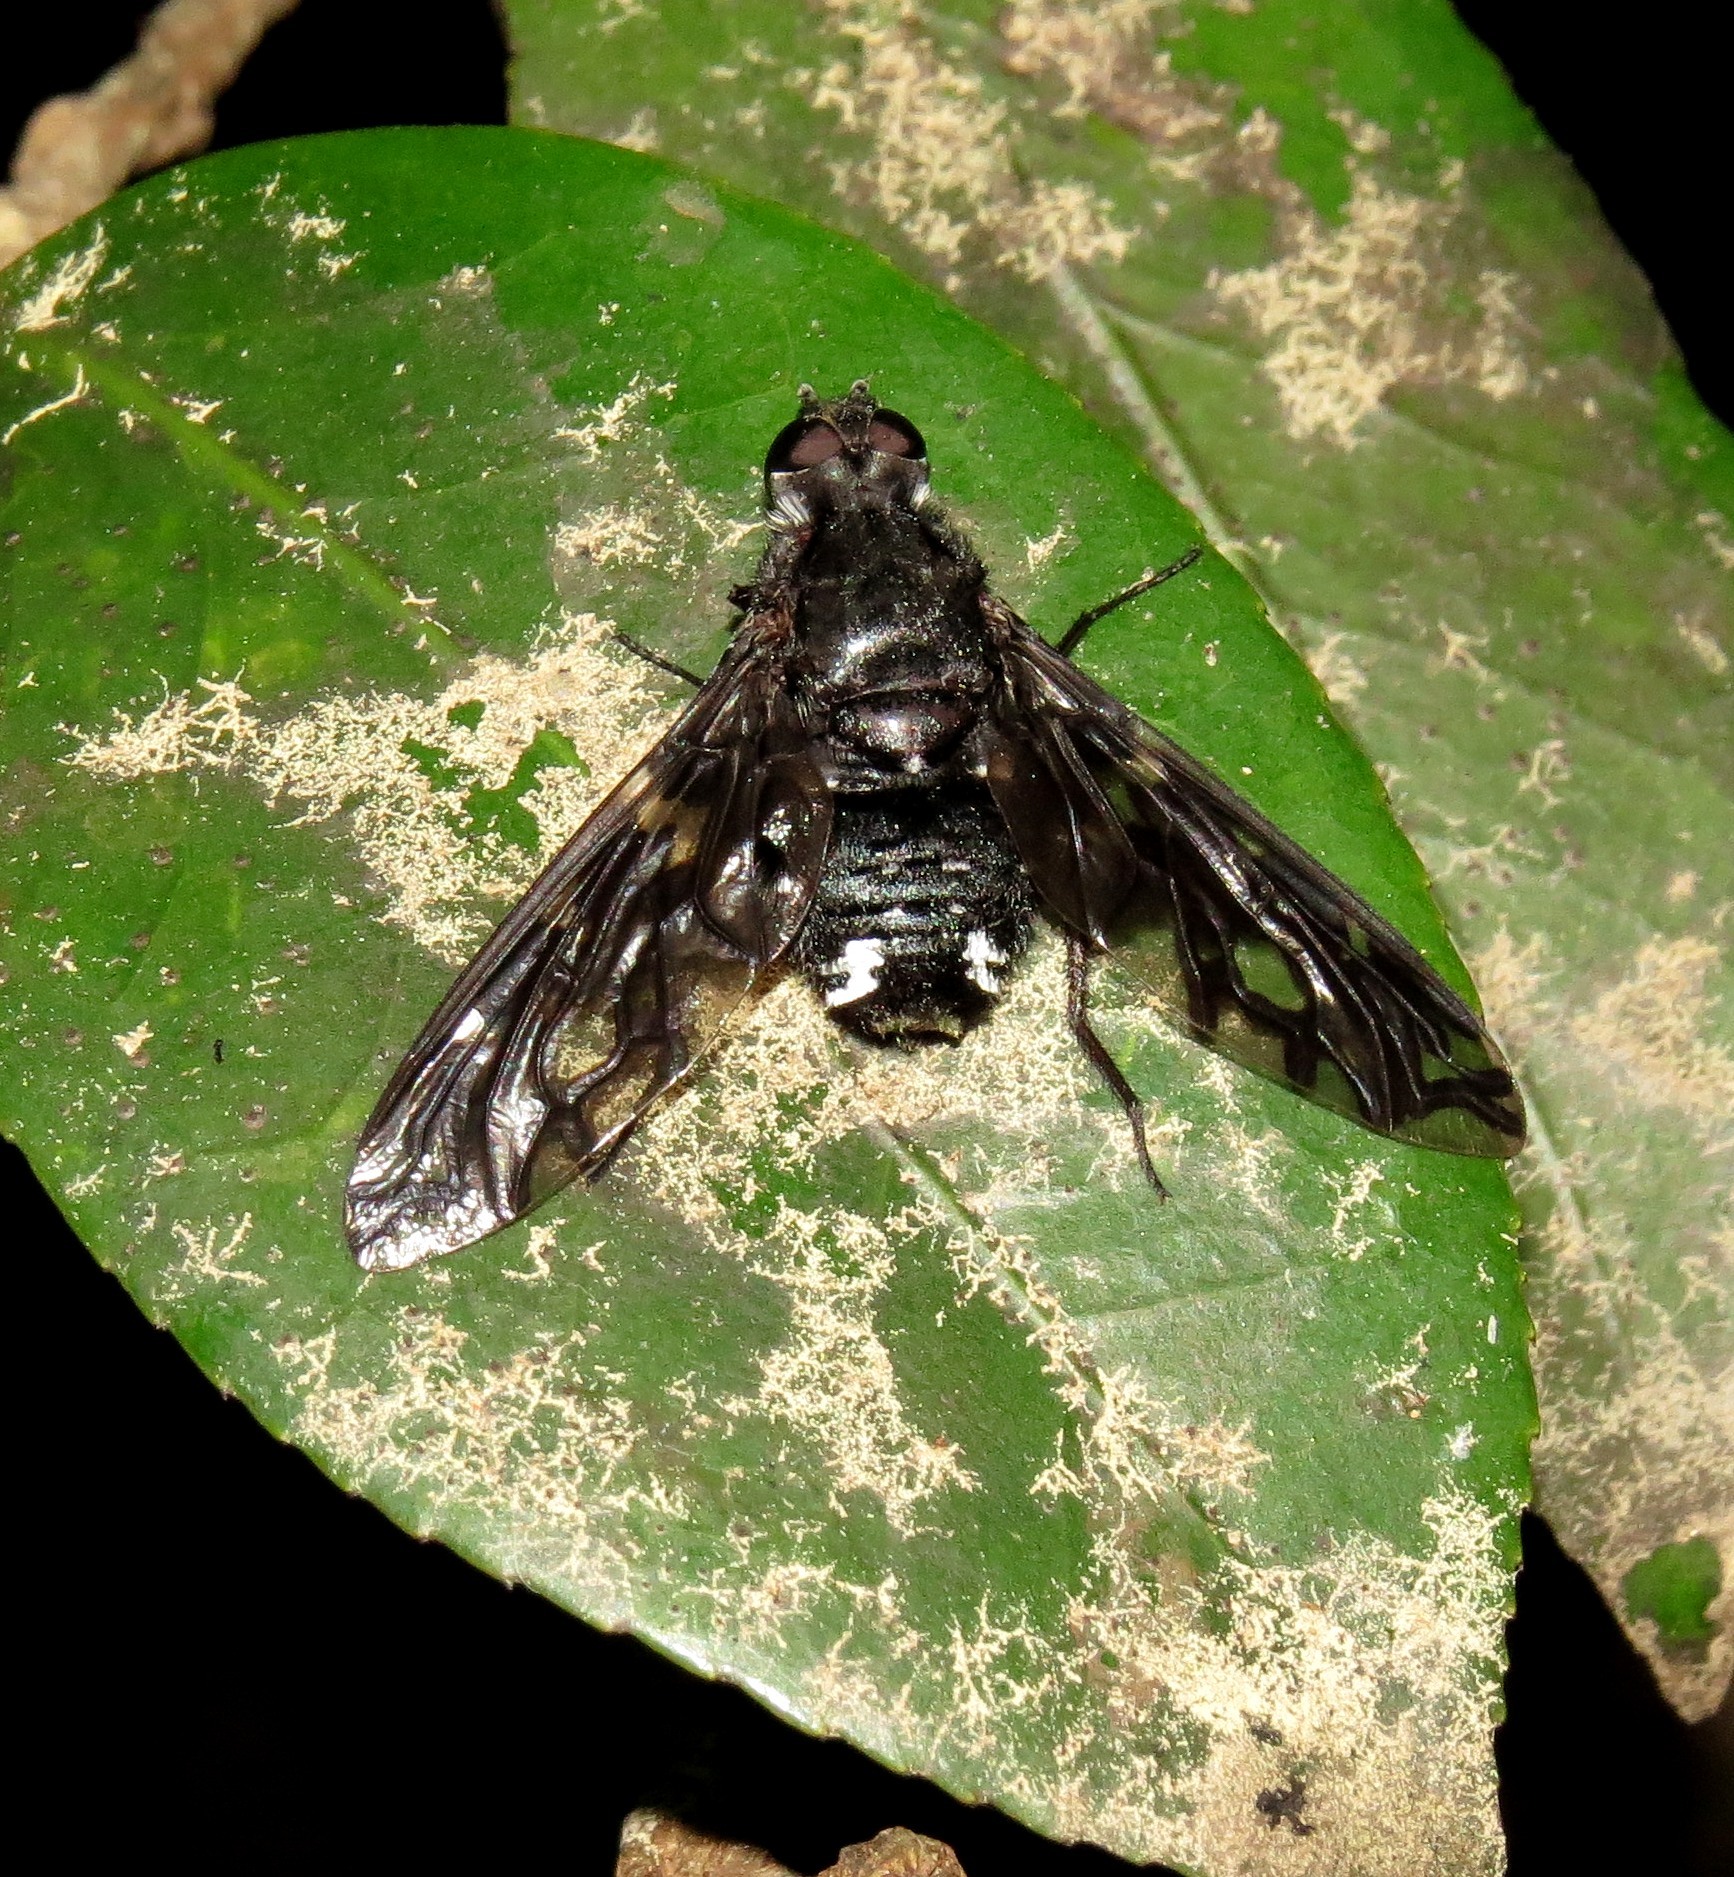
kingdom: Animalia
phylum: Arthropoda
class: Insecta
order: Diptera
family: Bombyliidae
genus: Xenox
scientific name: Xenox tigrinus
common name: Tiger bee fly
